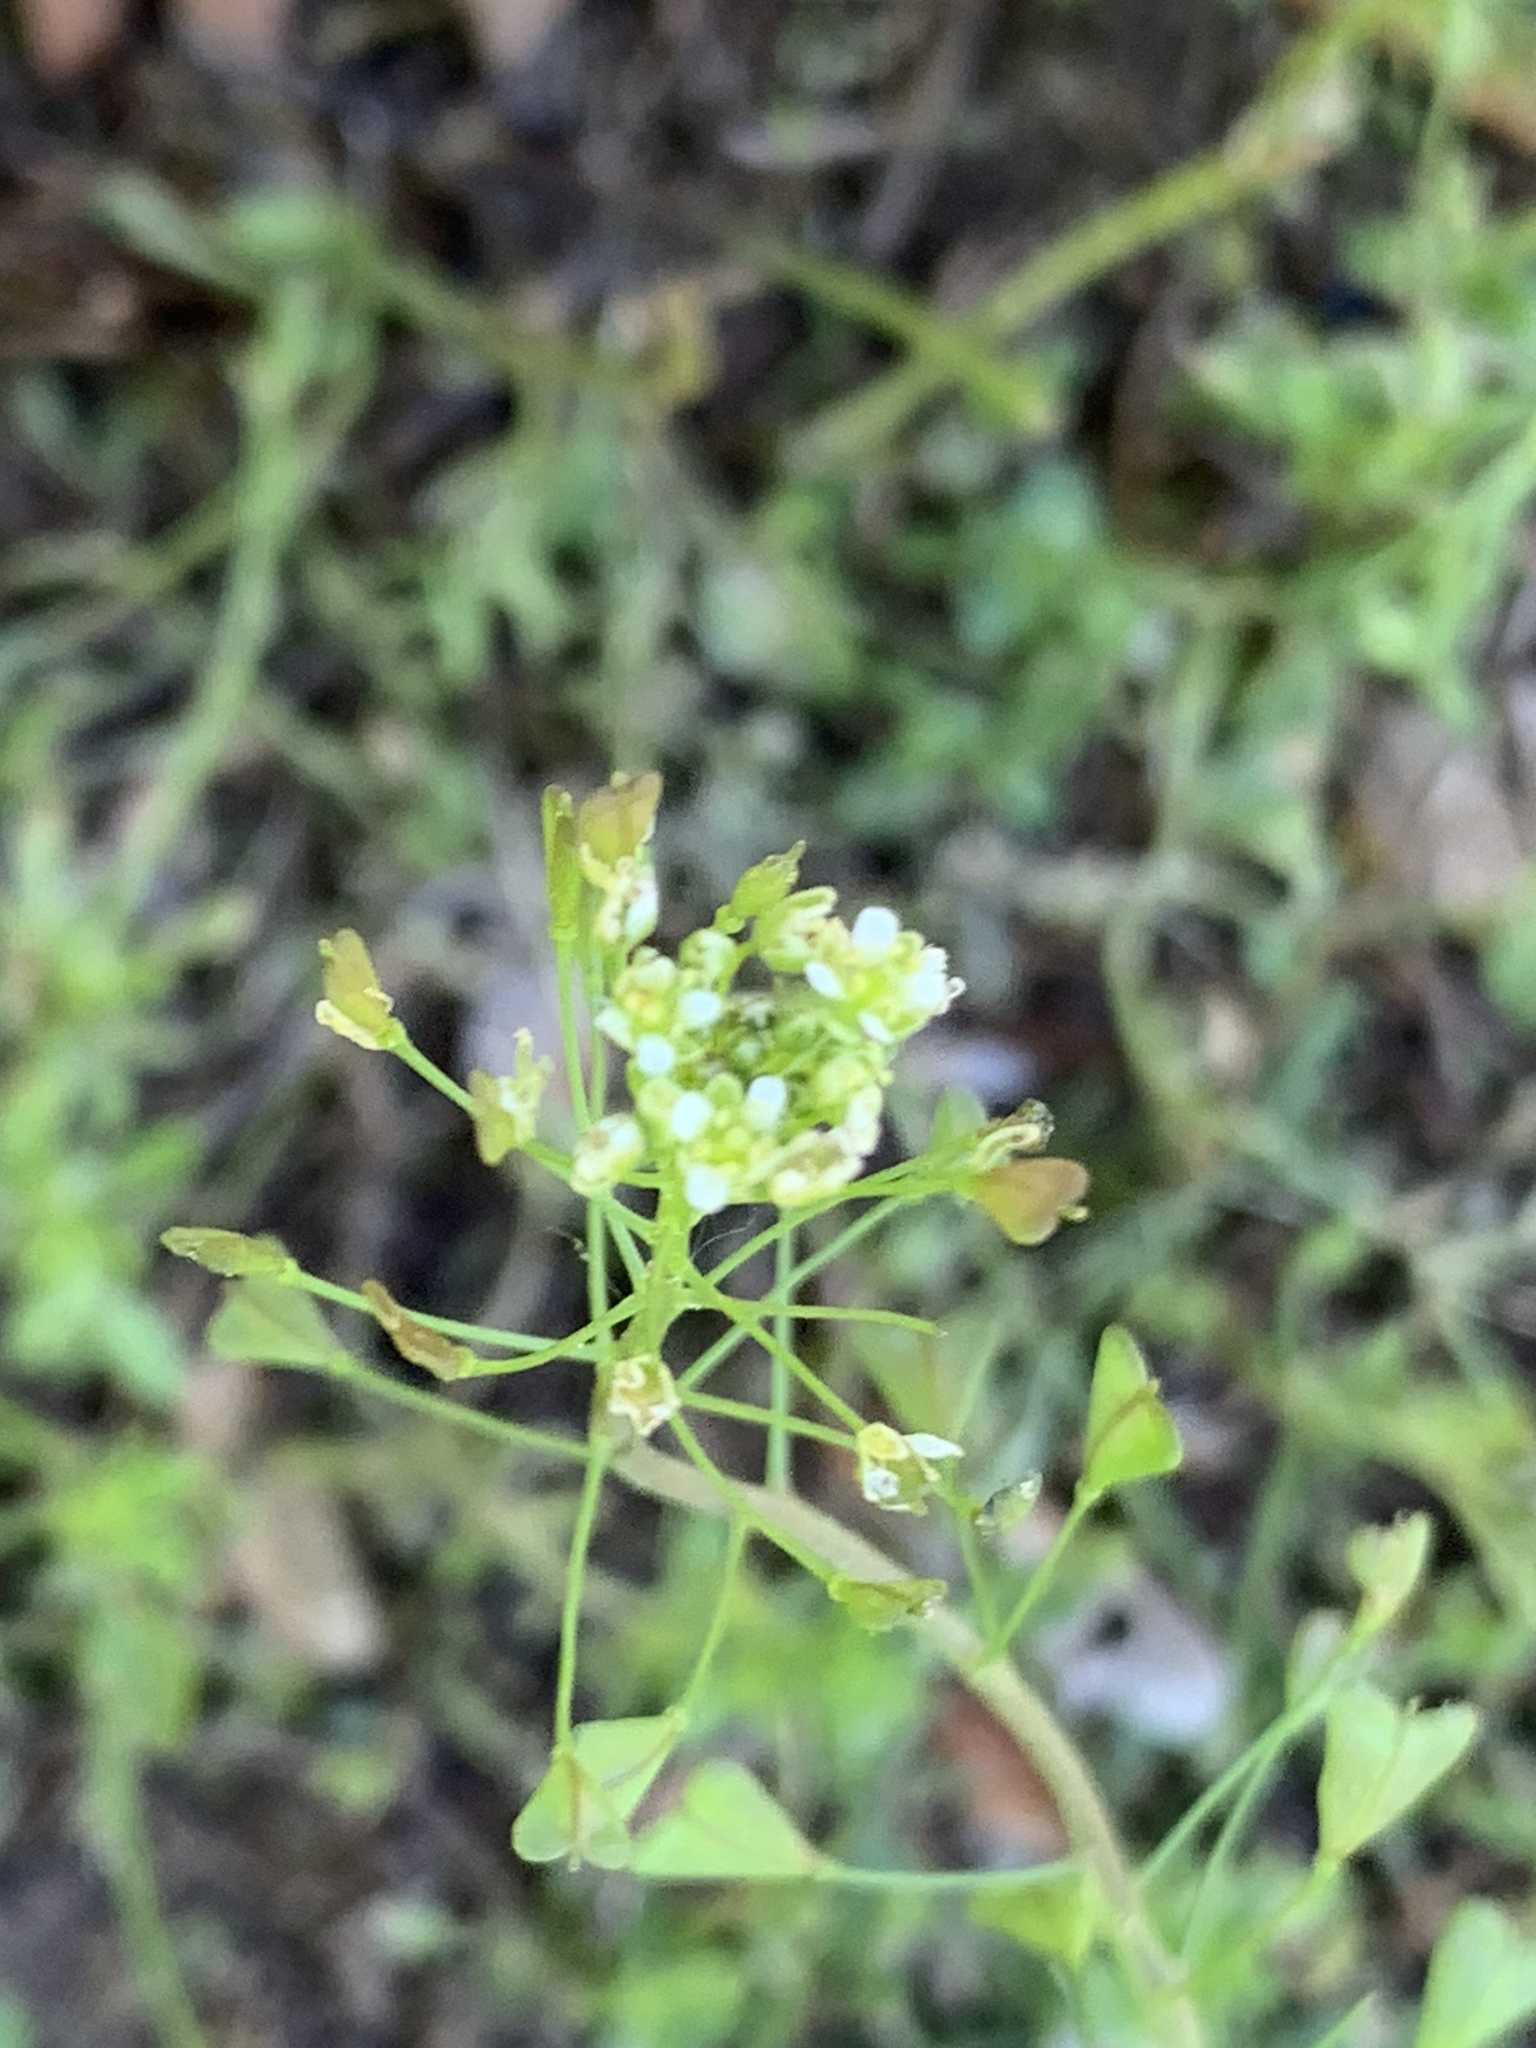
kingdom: Plantae
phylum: Tracheophyta
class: Magnoliopsida
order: Brassicales
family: Brassicaceae
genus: Capsella
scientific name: Capsella bursa-pastoris
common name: Shepherd's purse
